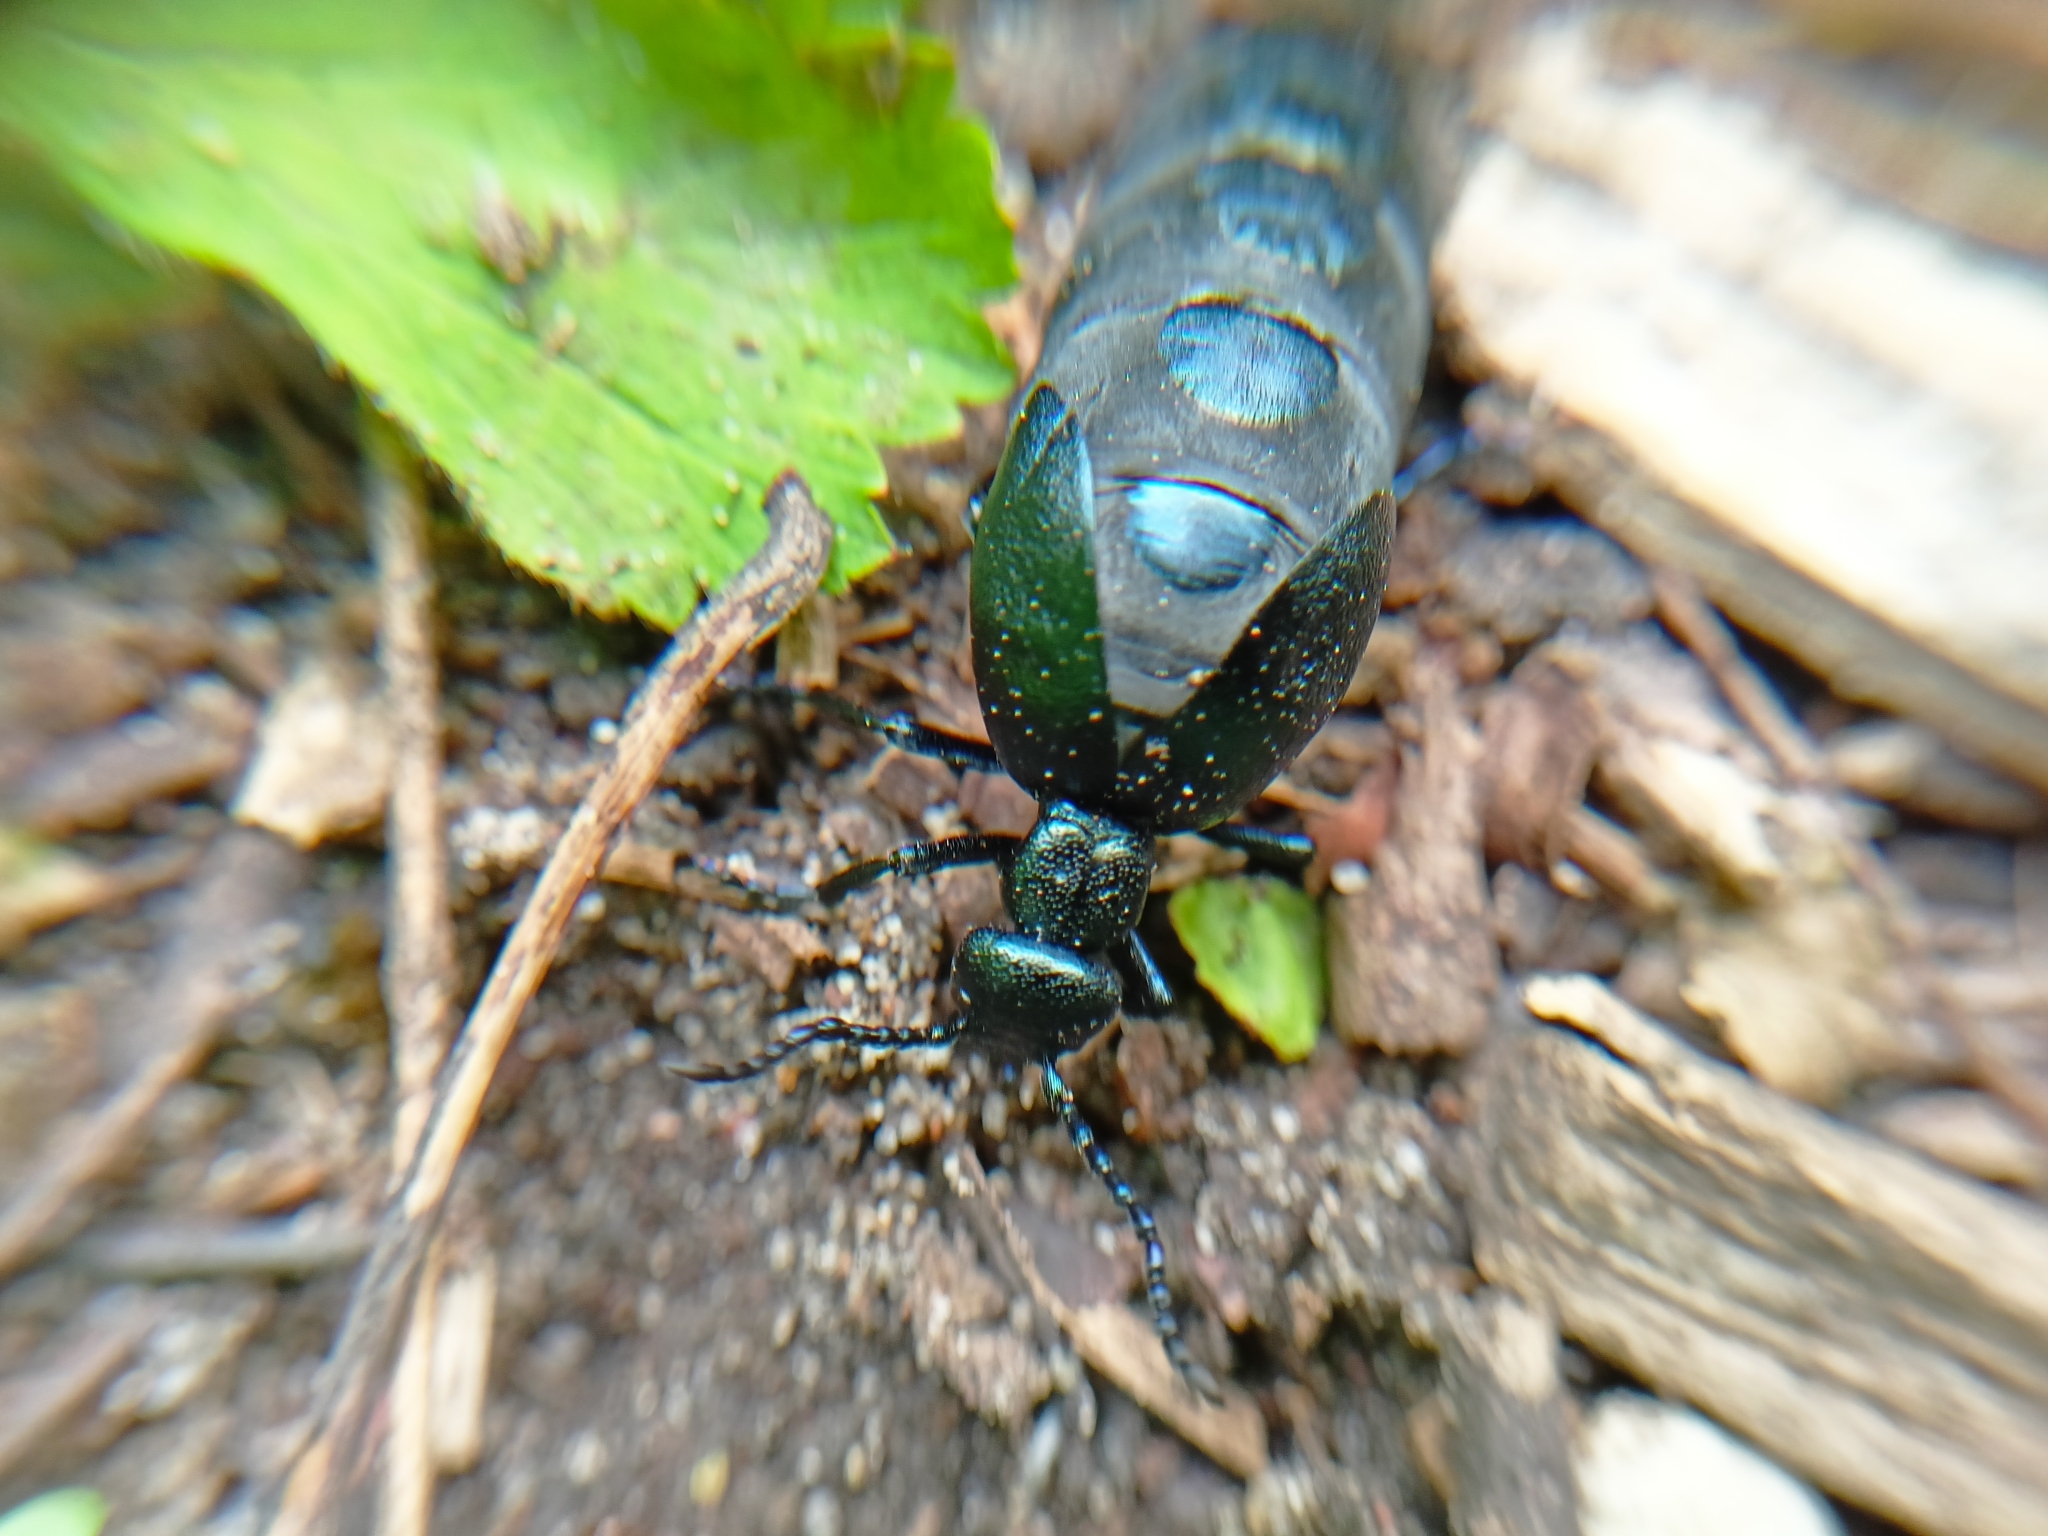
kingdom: Animalia
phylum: Arthropoda
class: Insecta
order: Coleoptera
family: Meloidae
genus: Meloe
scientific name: Meloe violaceus
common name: Violet oil-beetle
